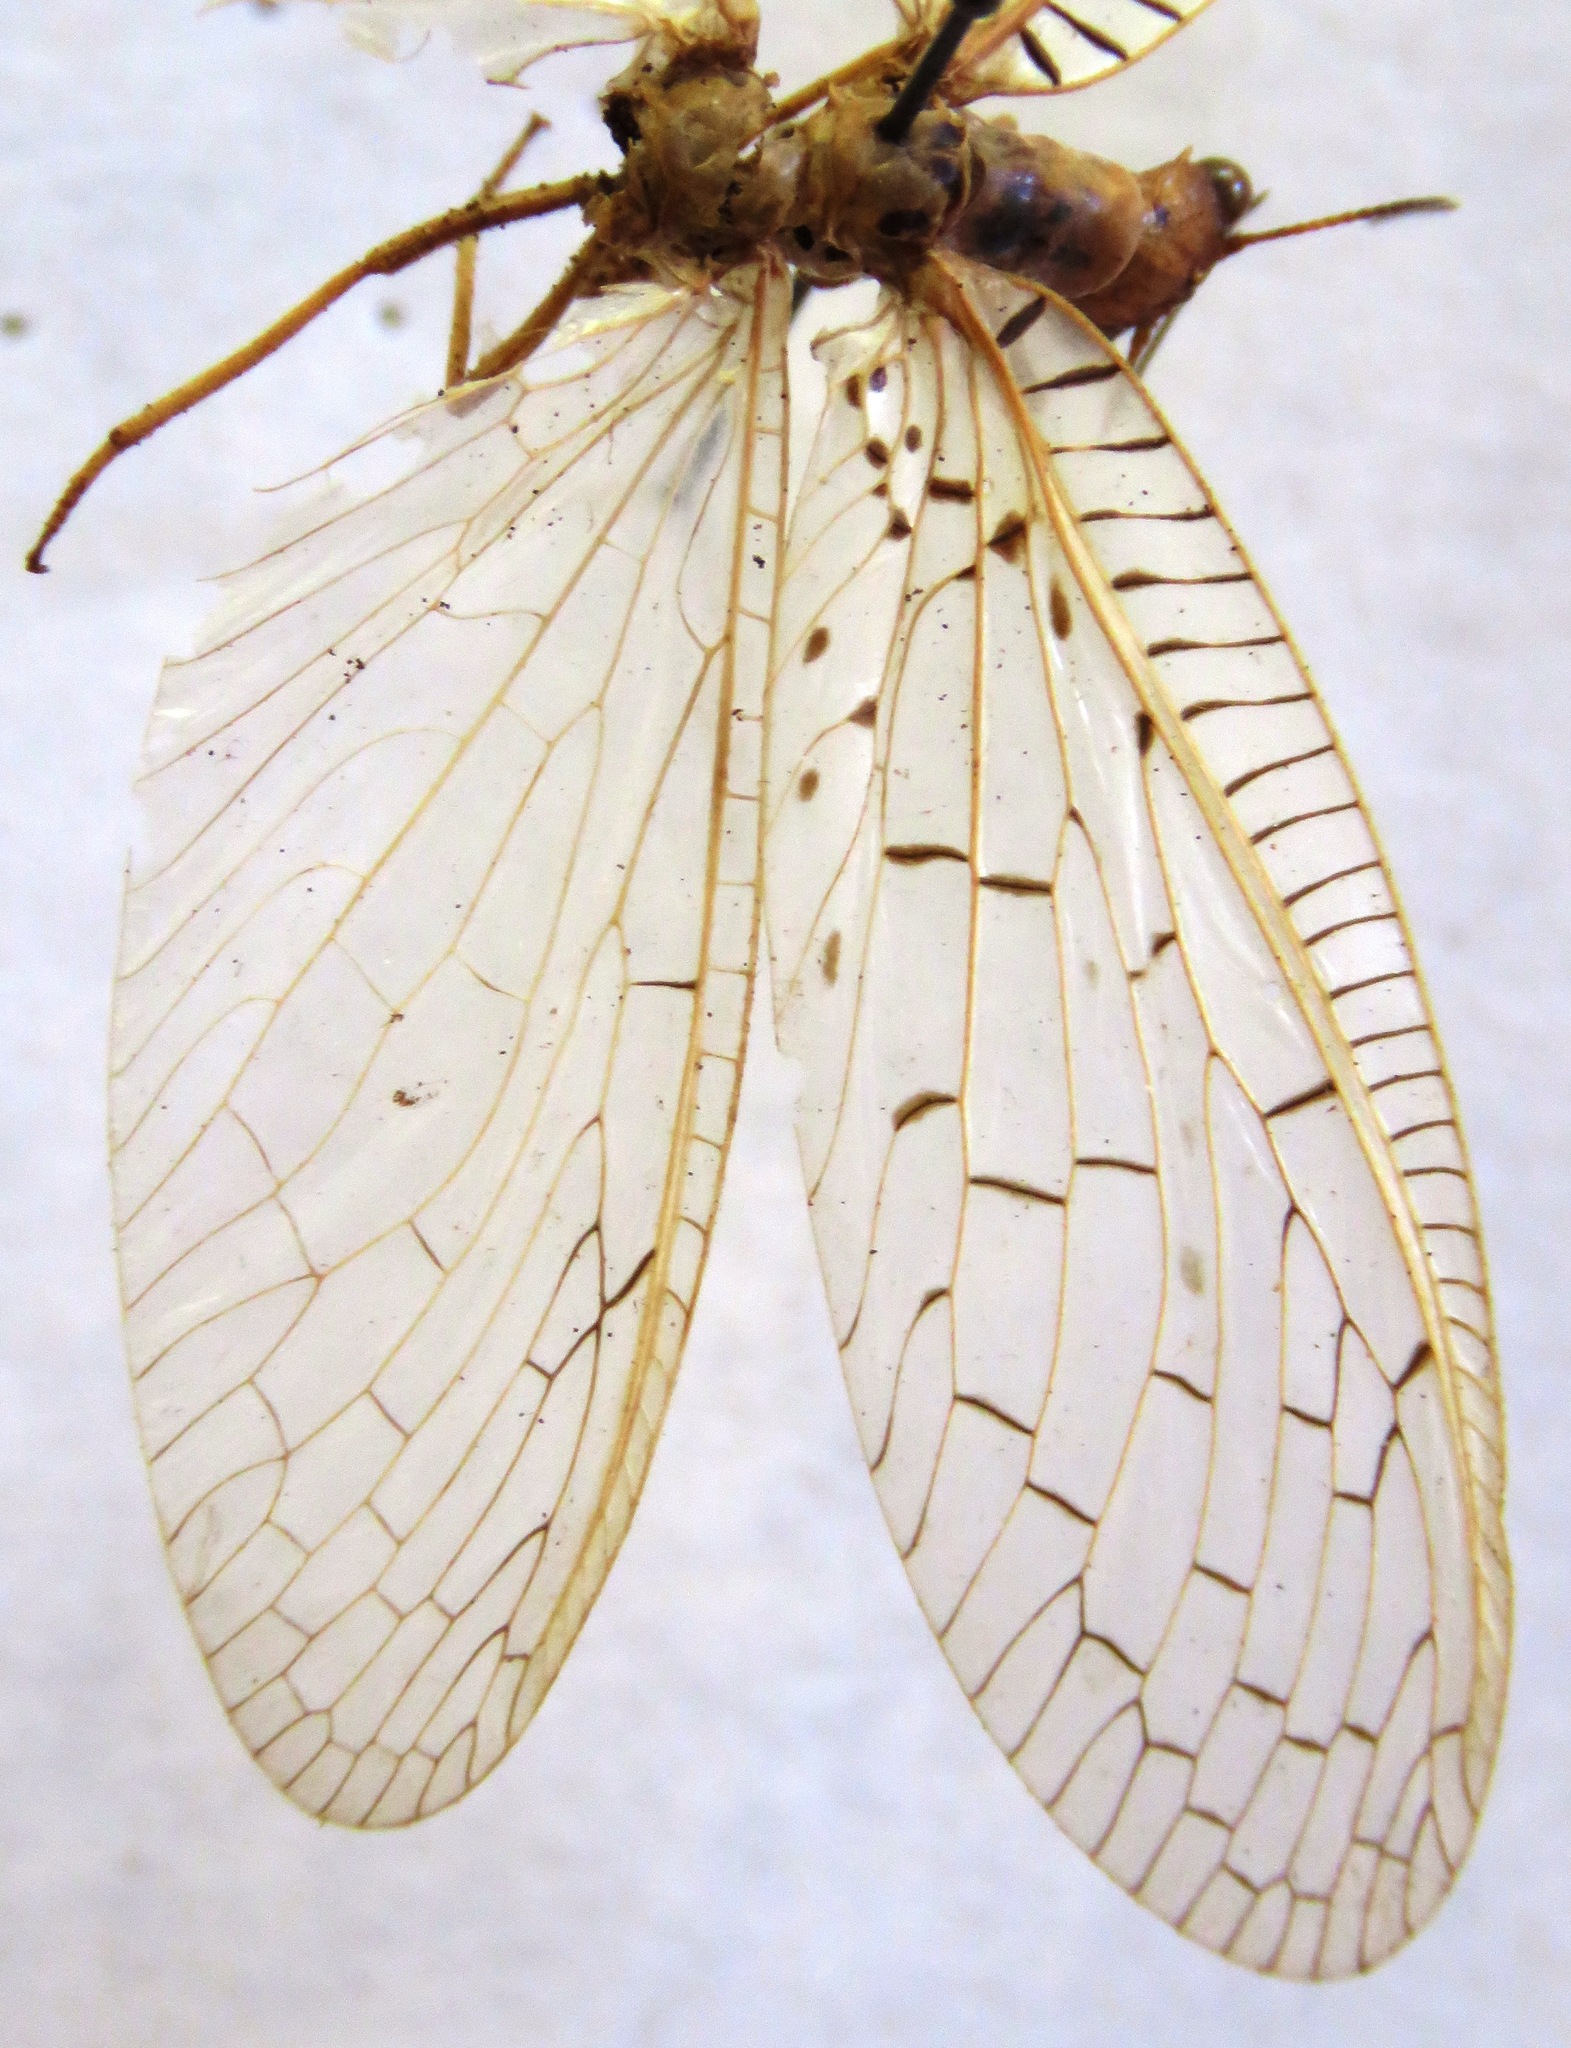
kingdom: Animalia
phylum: Arthropoda
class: Insecta
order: Megaloptera
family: Corydalidae
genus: Chloronia
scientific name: Chloronia mexicana
